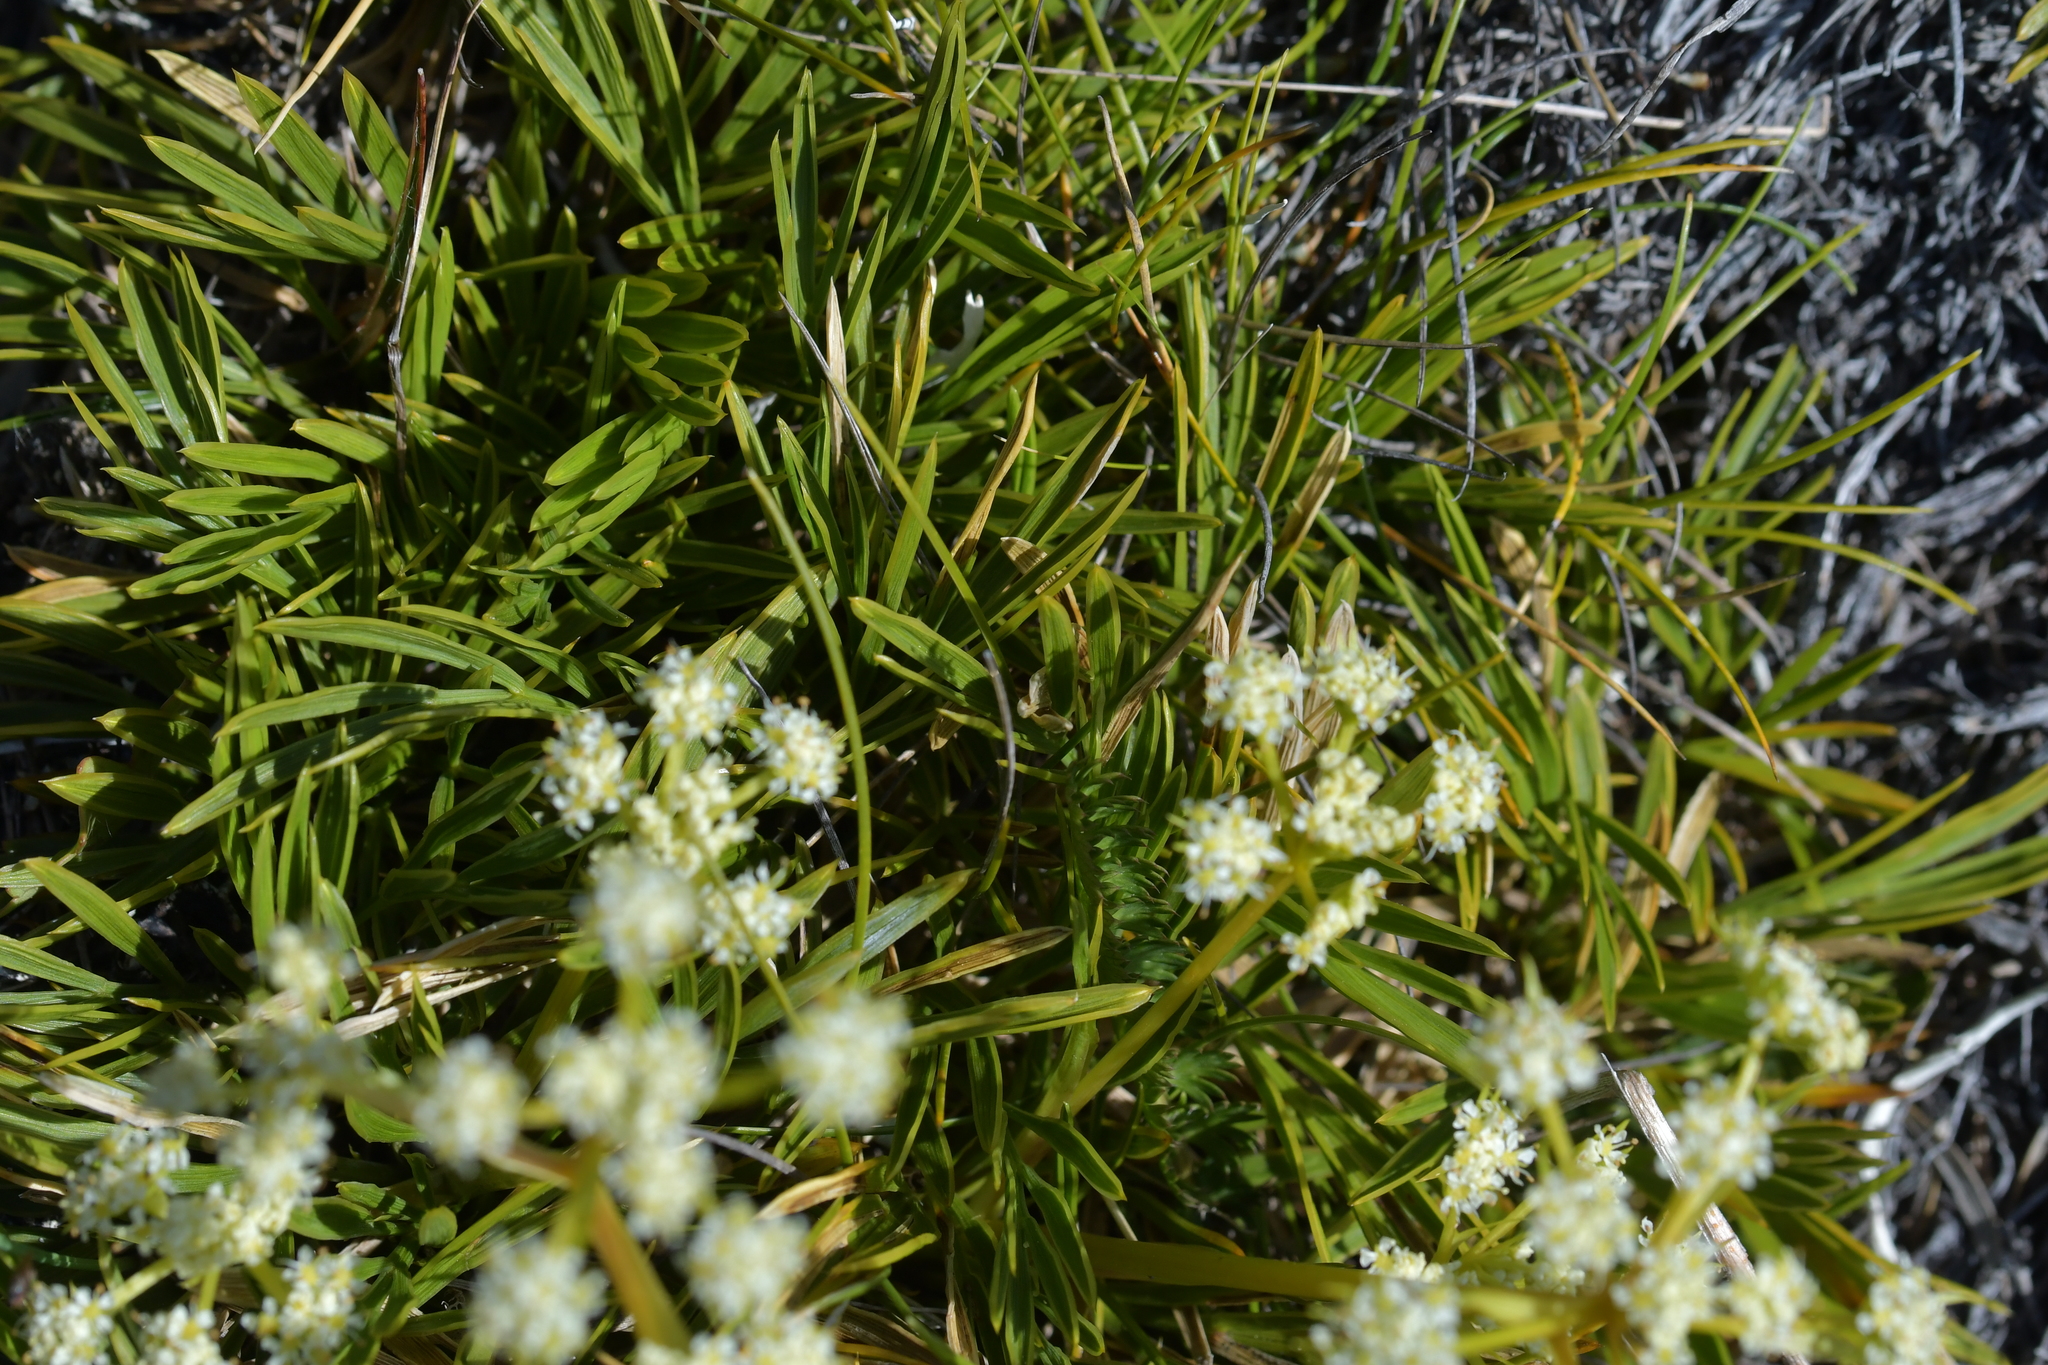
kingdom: Plantae
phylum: Tracheophyta
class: Magnoliopsida
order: Apiales
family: Apiaceae
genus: Aciphylla
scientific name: Aciphylla monroi
